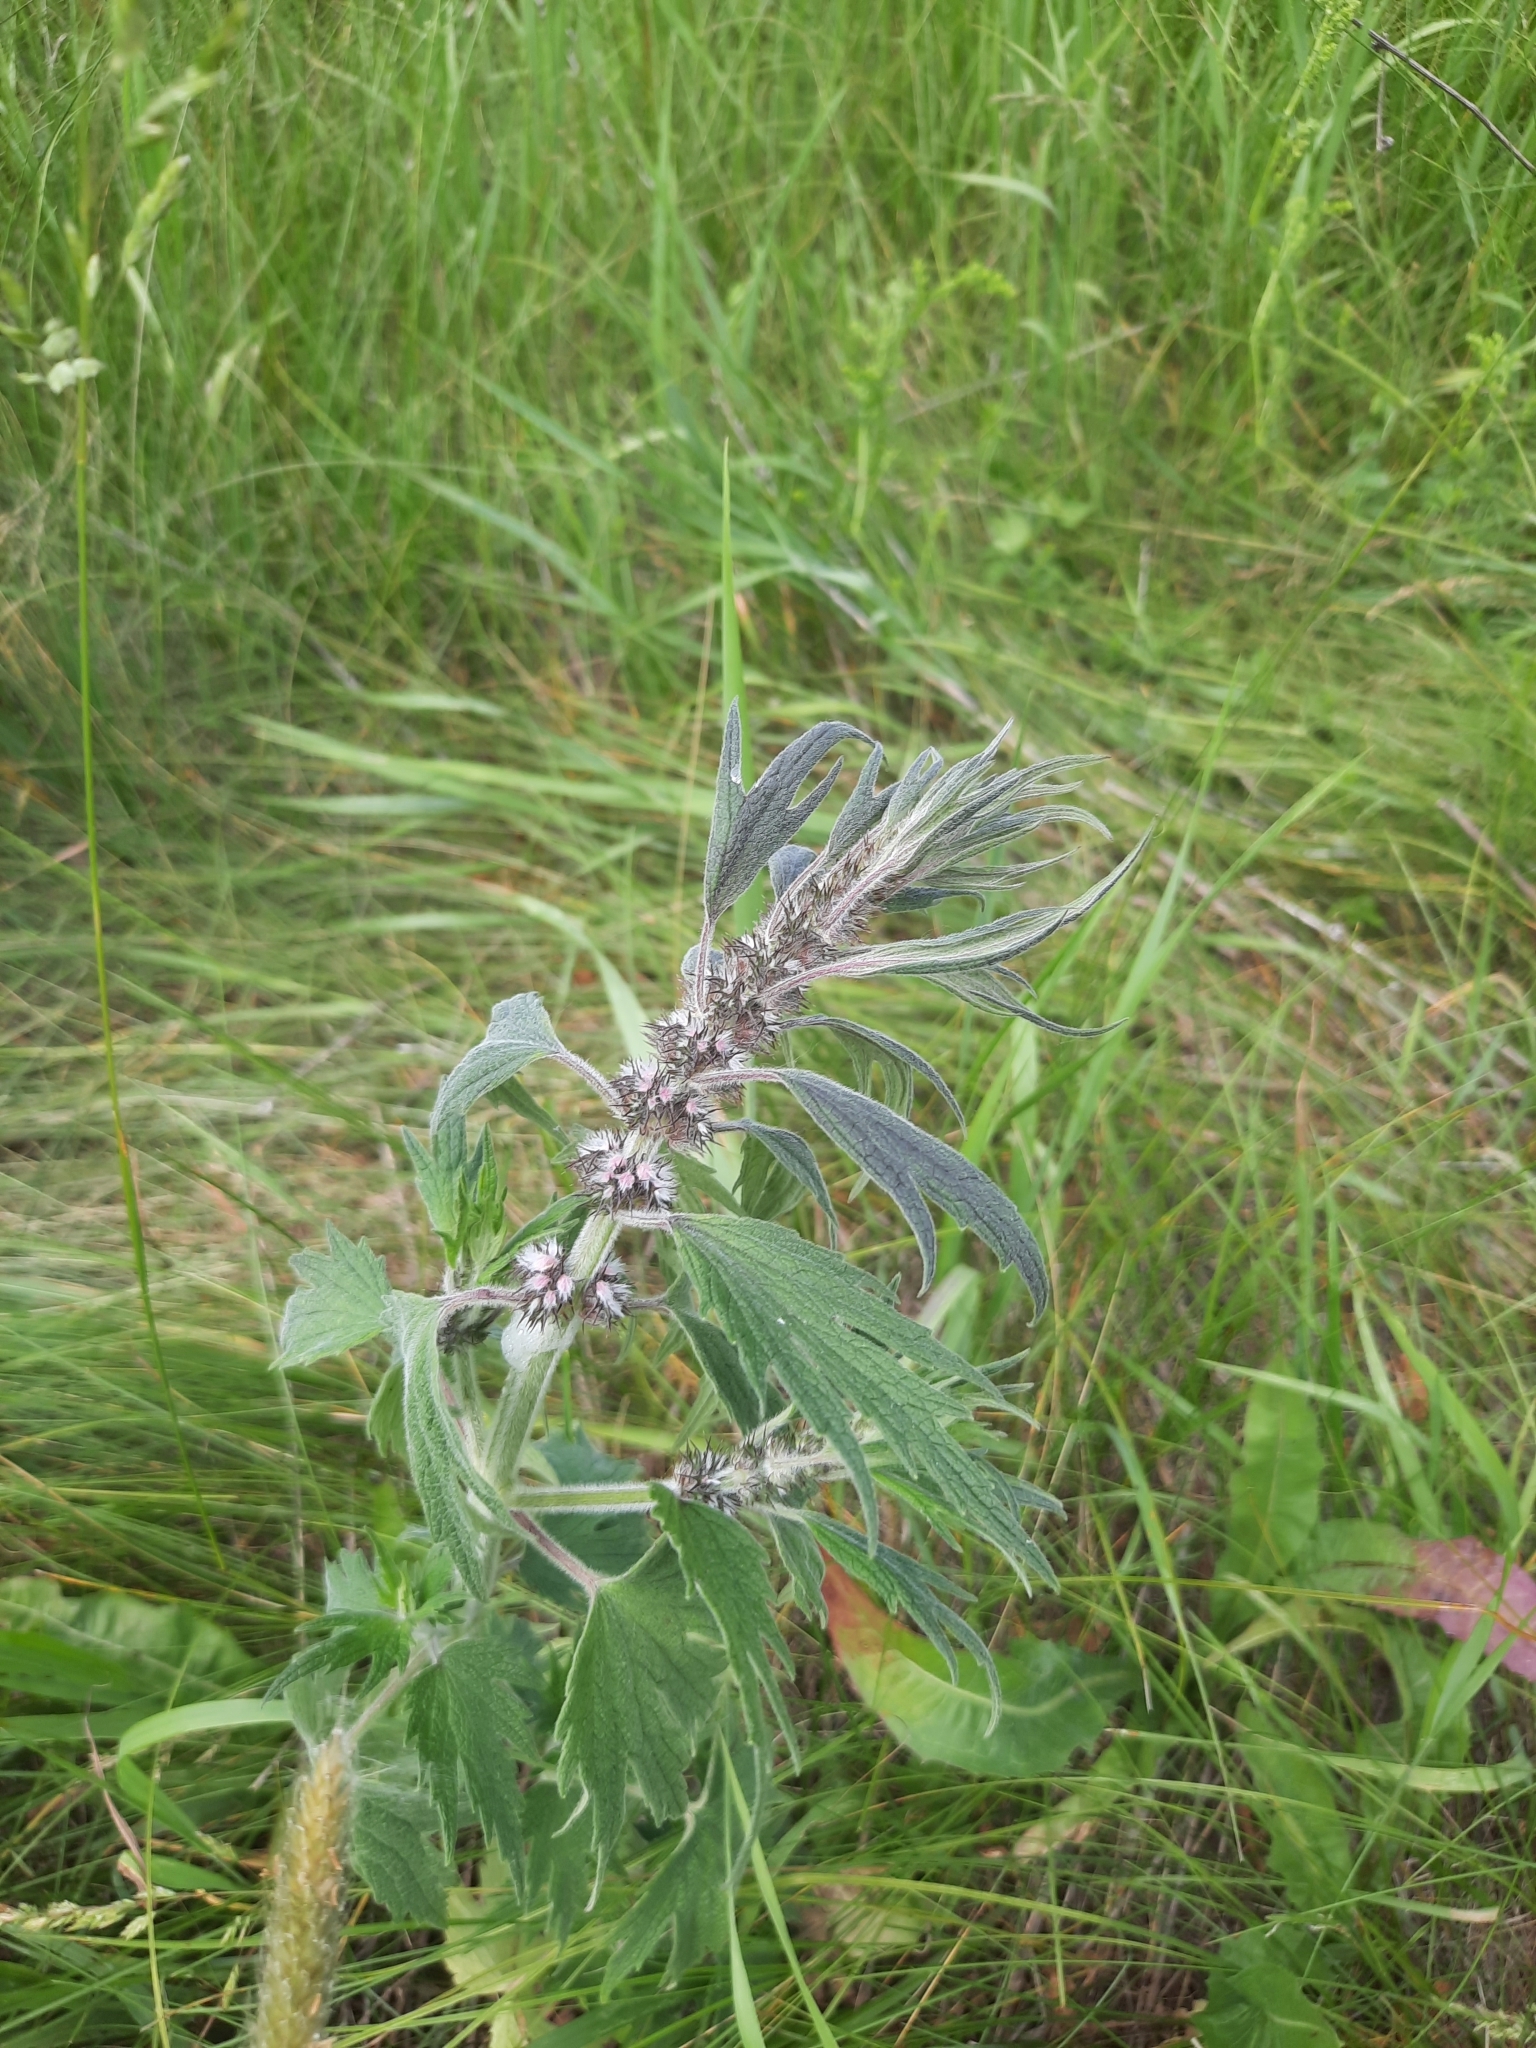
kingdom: Plantae
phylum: Tracheophyta
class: Magnoliopsida
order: Lamiales
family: Lamiaceae
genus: Leonurus
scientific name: Leonurus quinquelobatus
